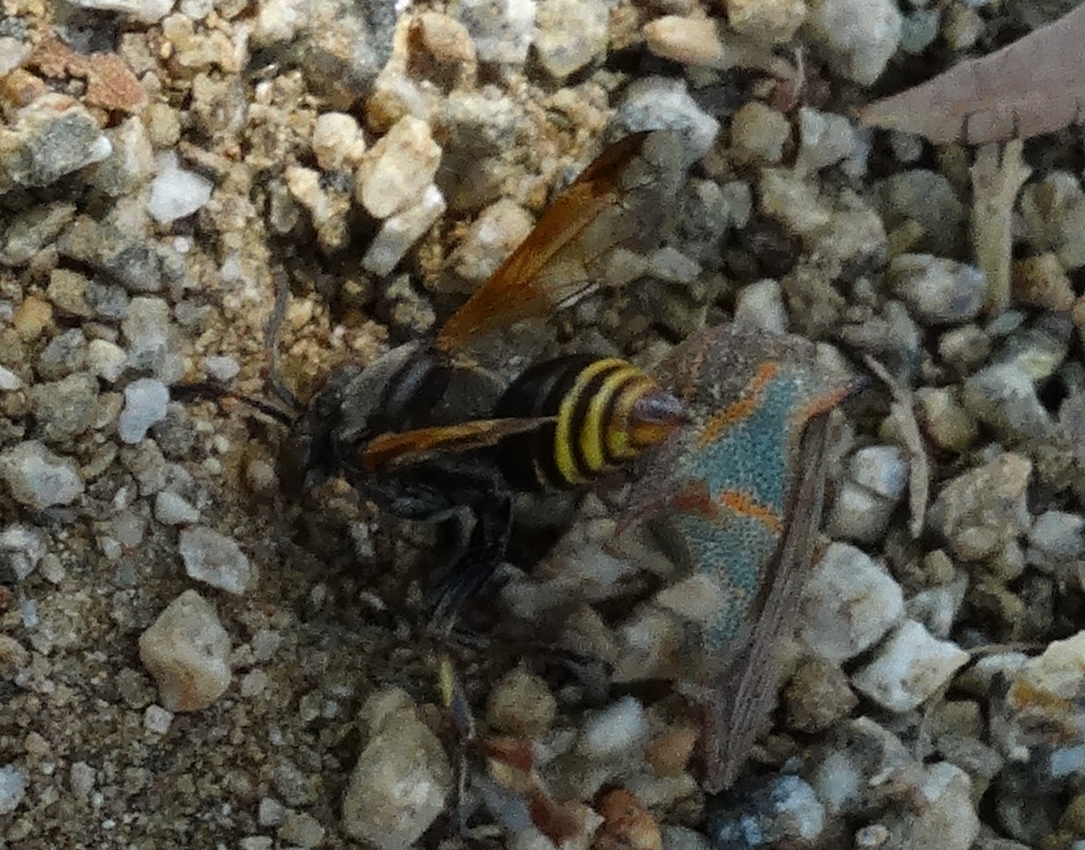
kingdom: Animalia
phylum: Arthropoda
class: Insecta
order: Hymenoptera
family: Vespidae
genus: Brachygastra
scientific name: Brachygastra mellifica
